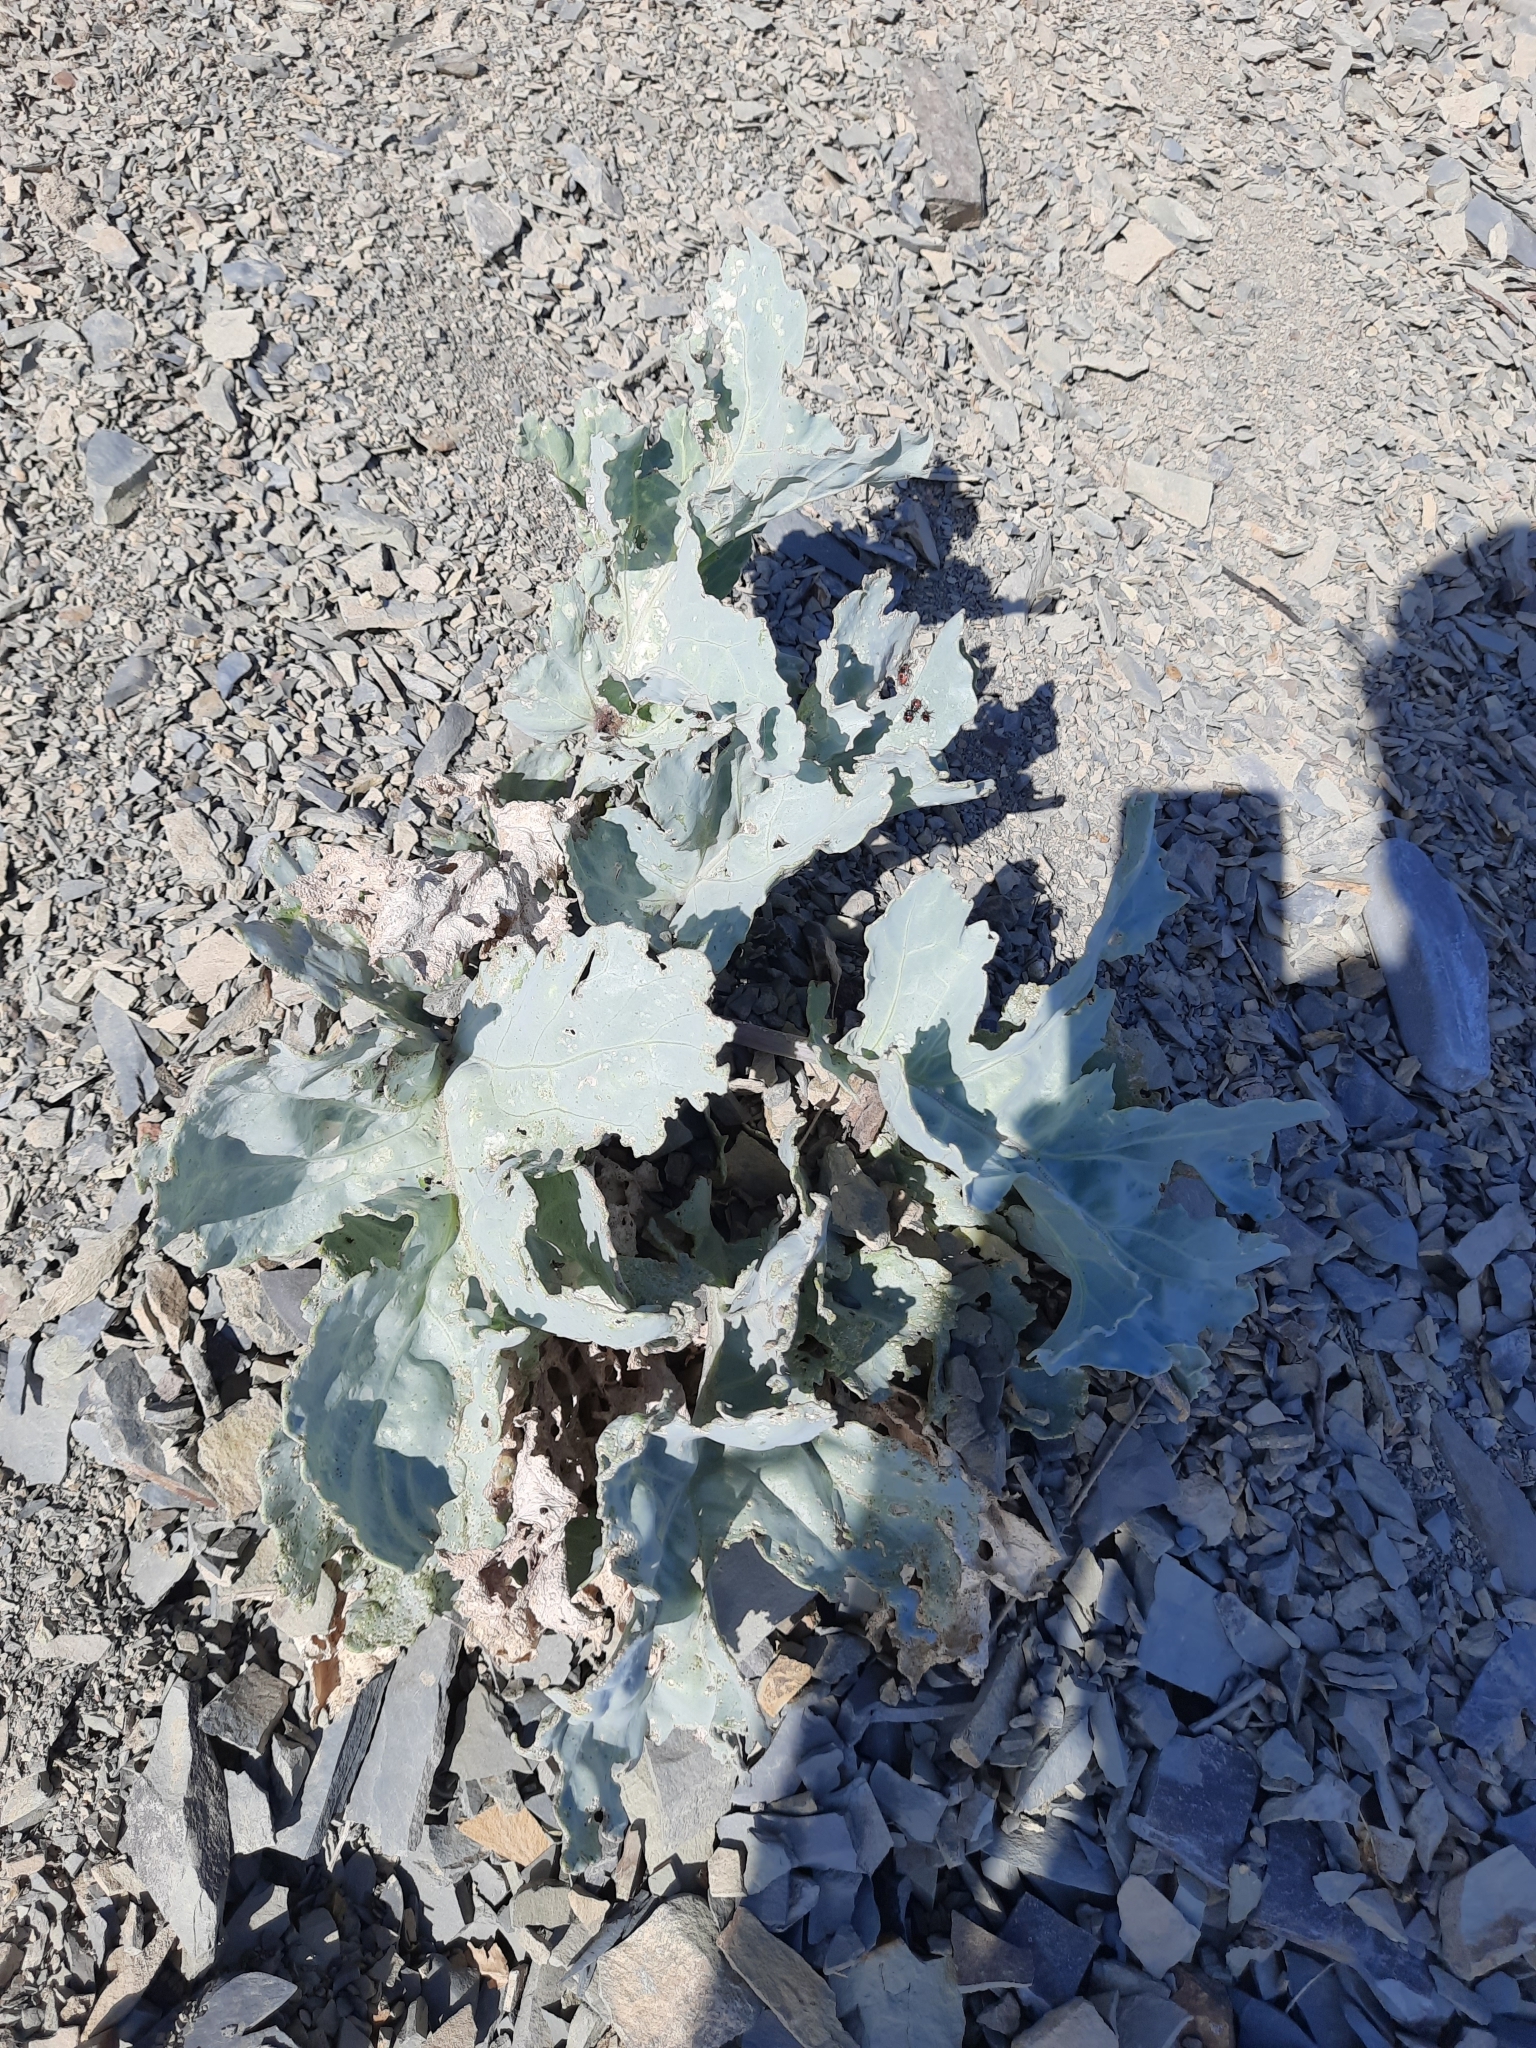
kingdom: Plantae
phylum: Tracheophyta
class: Magnoliopsida
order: Brassicales
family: Brassicaceae
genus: Crambe
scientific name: Crambe maritima
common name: Sea-kale
